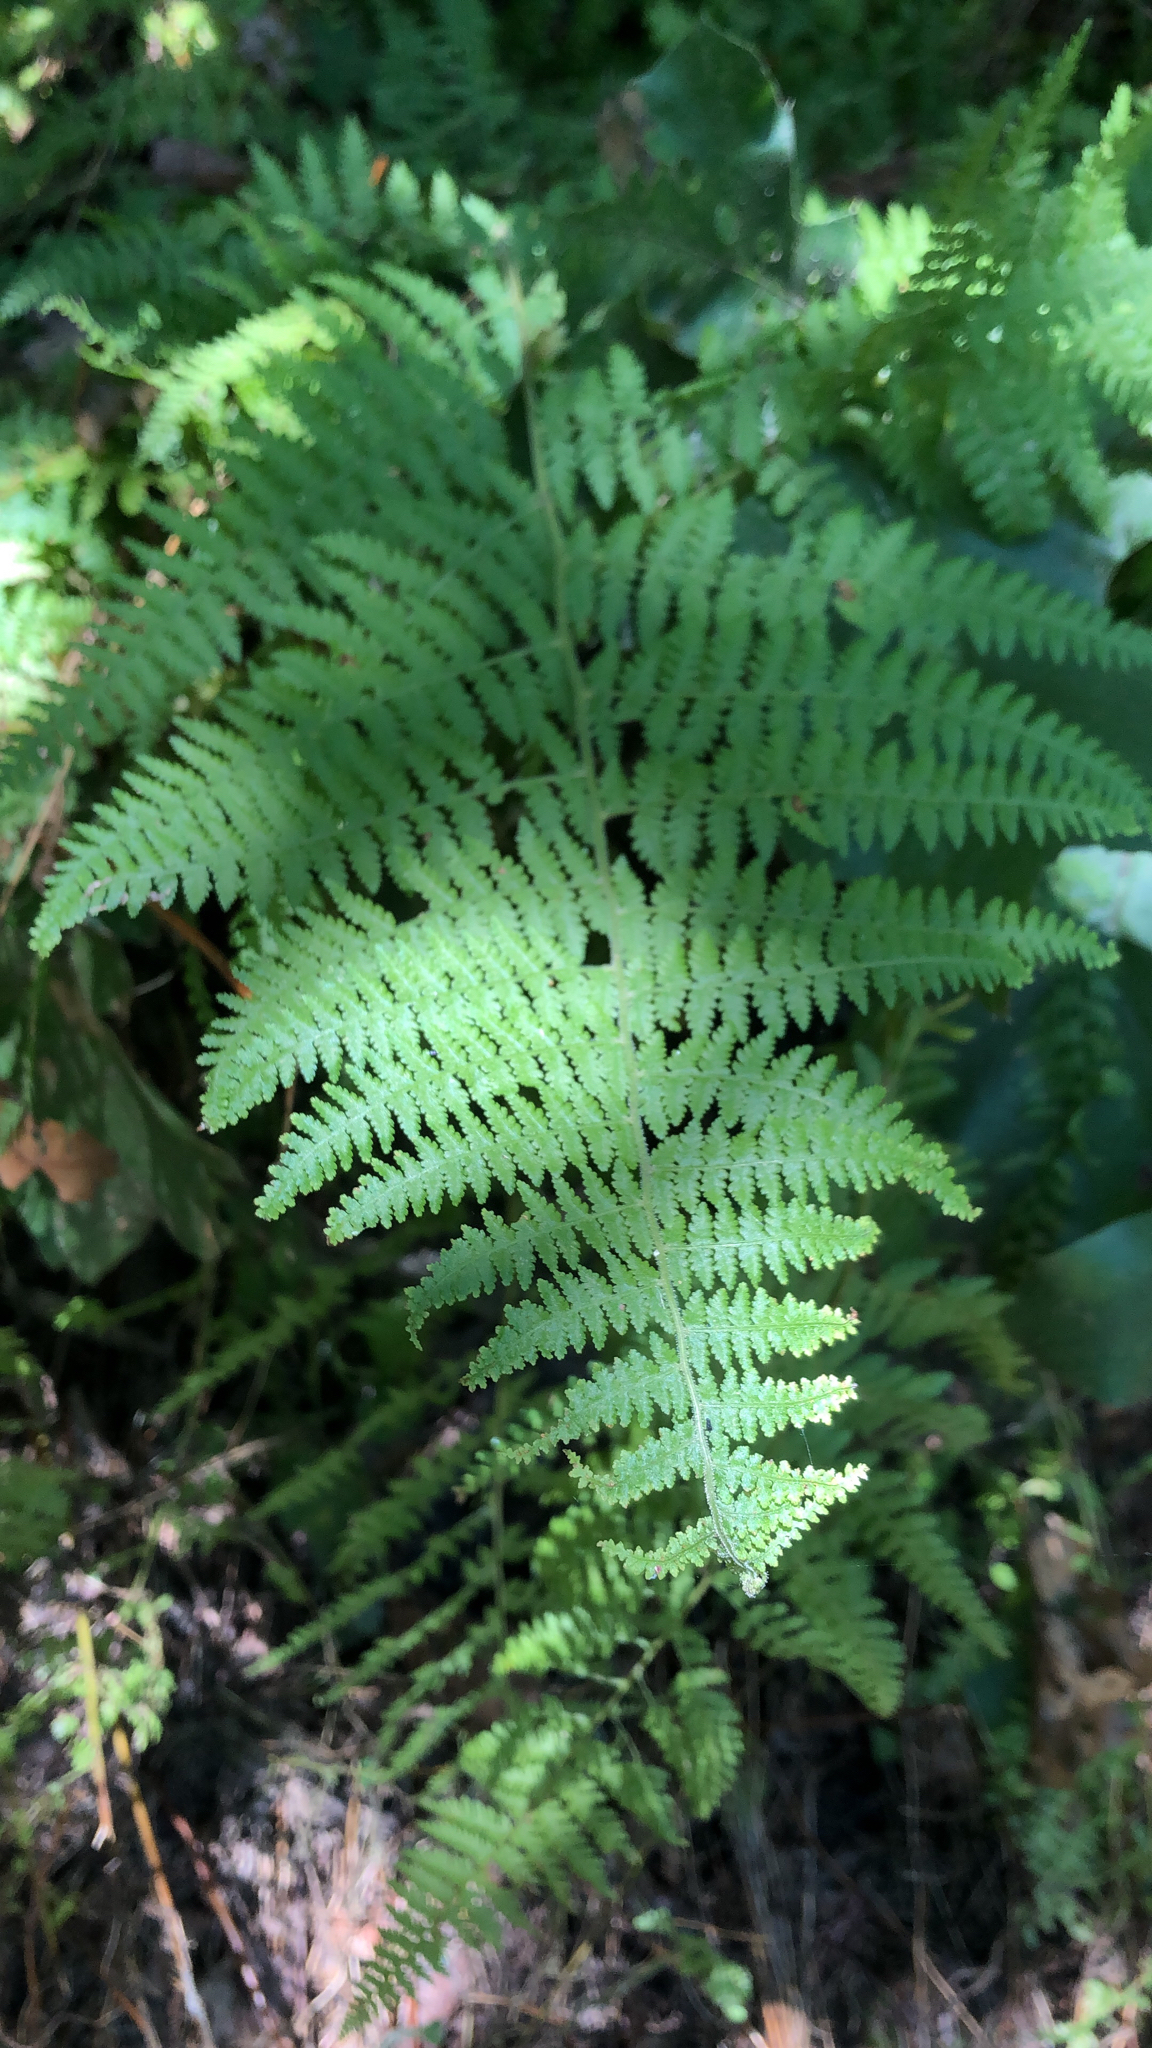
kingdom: Plantae
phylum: Tracheophyta
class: Polypodiopsida
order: Polypodiales
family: Dennstaedtiaceae
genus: Sitobolium
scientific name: Sitobolium punctilobum
